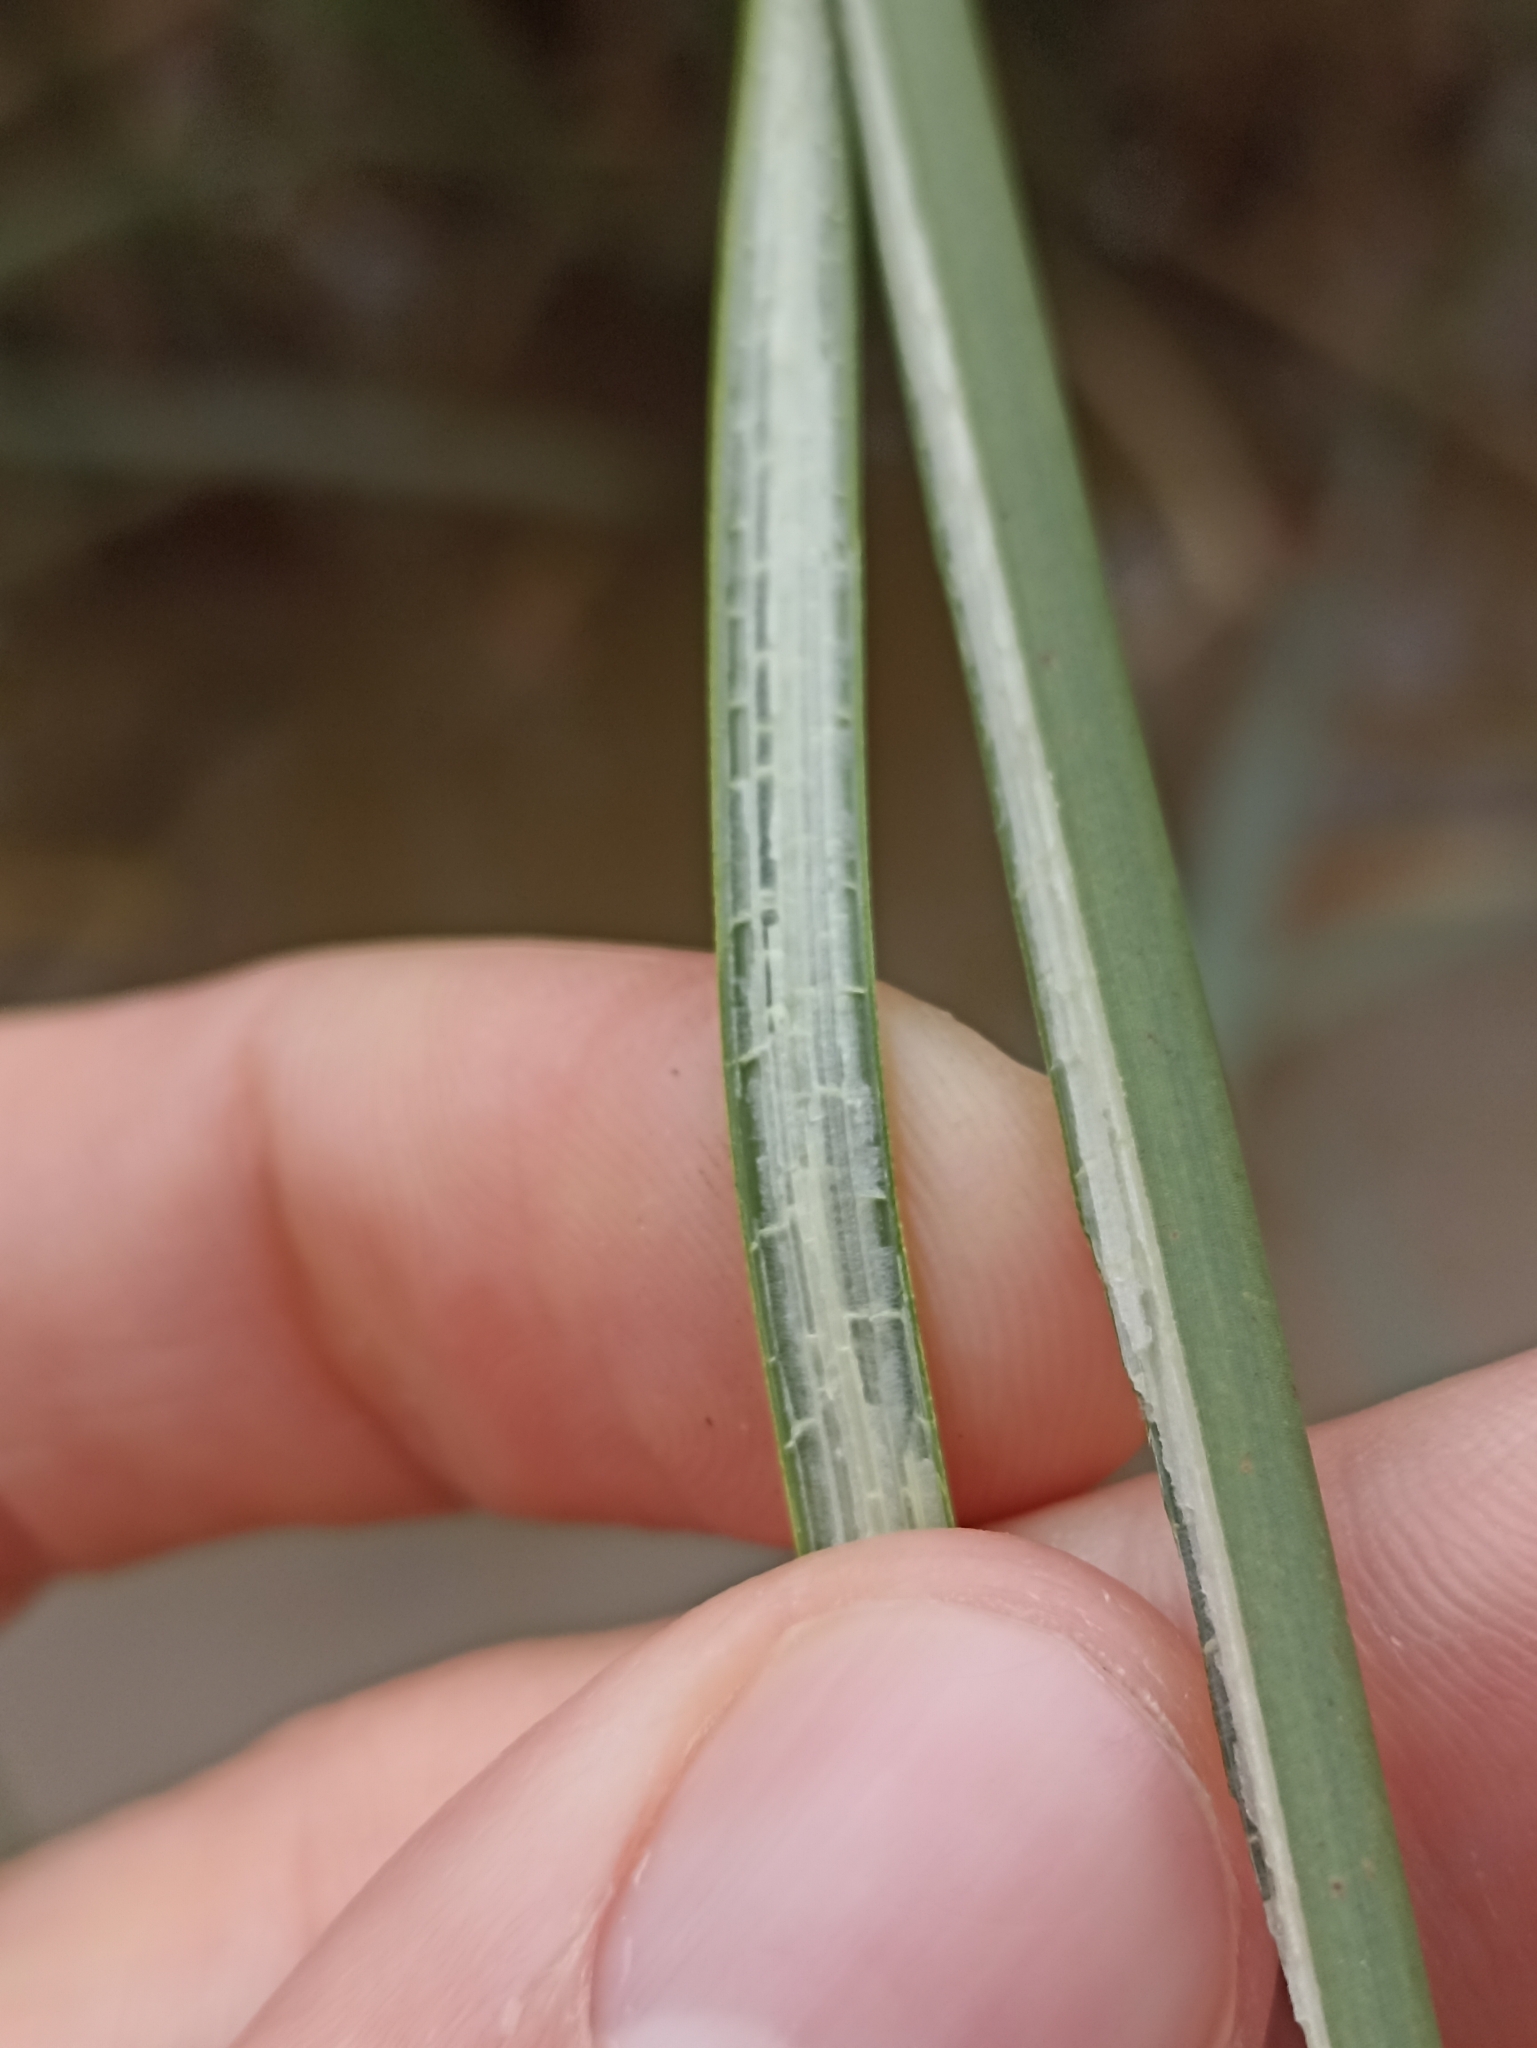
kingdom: Plantae
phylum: Tracheophyta
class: Liliopsida
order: Poales
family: Cyperaceae
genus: Schoenoplectus
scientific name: Schoenoplectus californicus
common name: California bulrush
